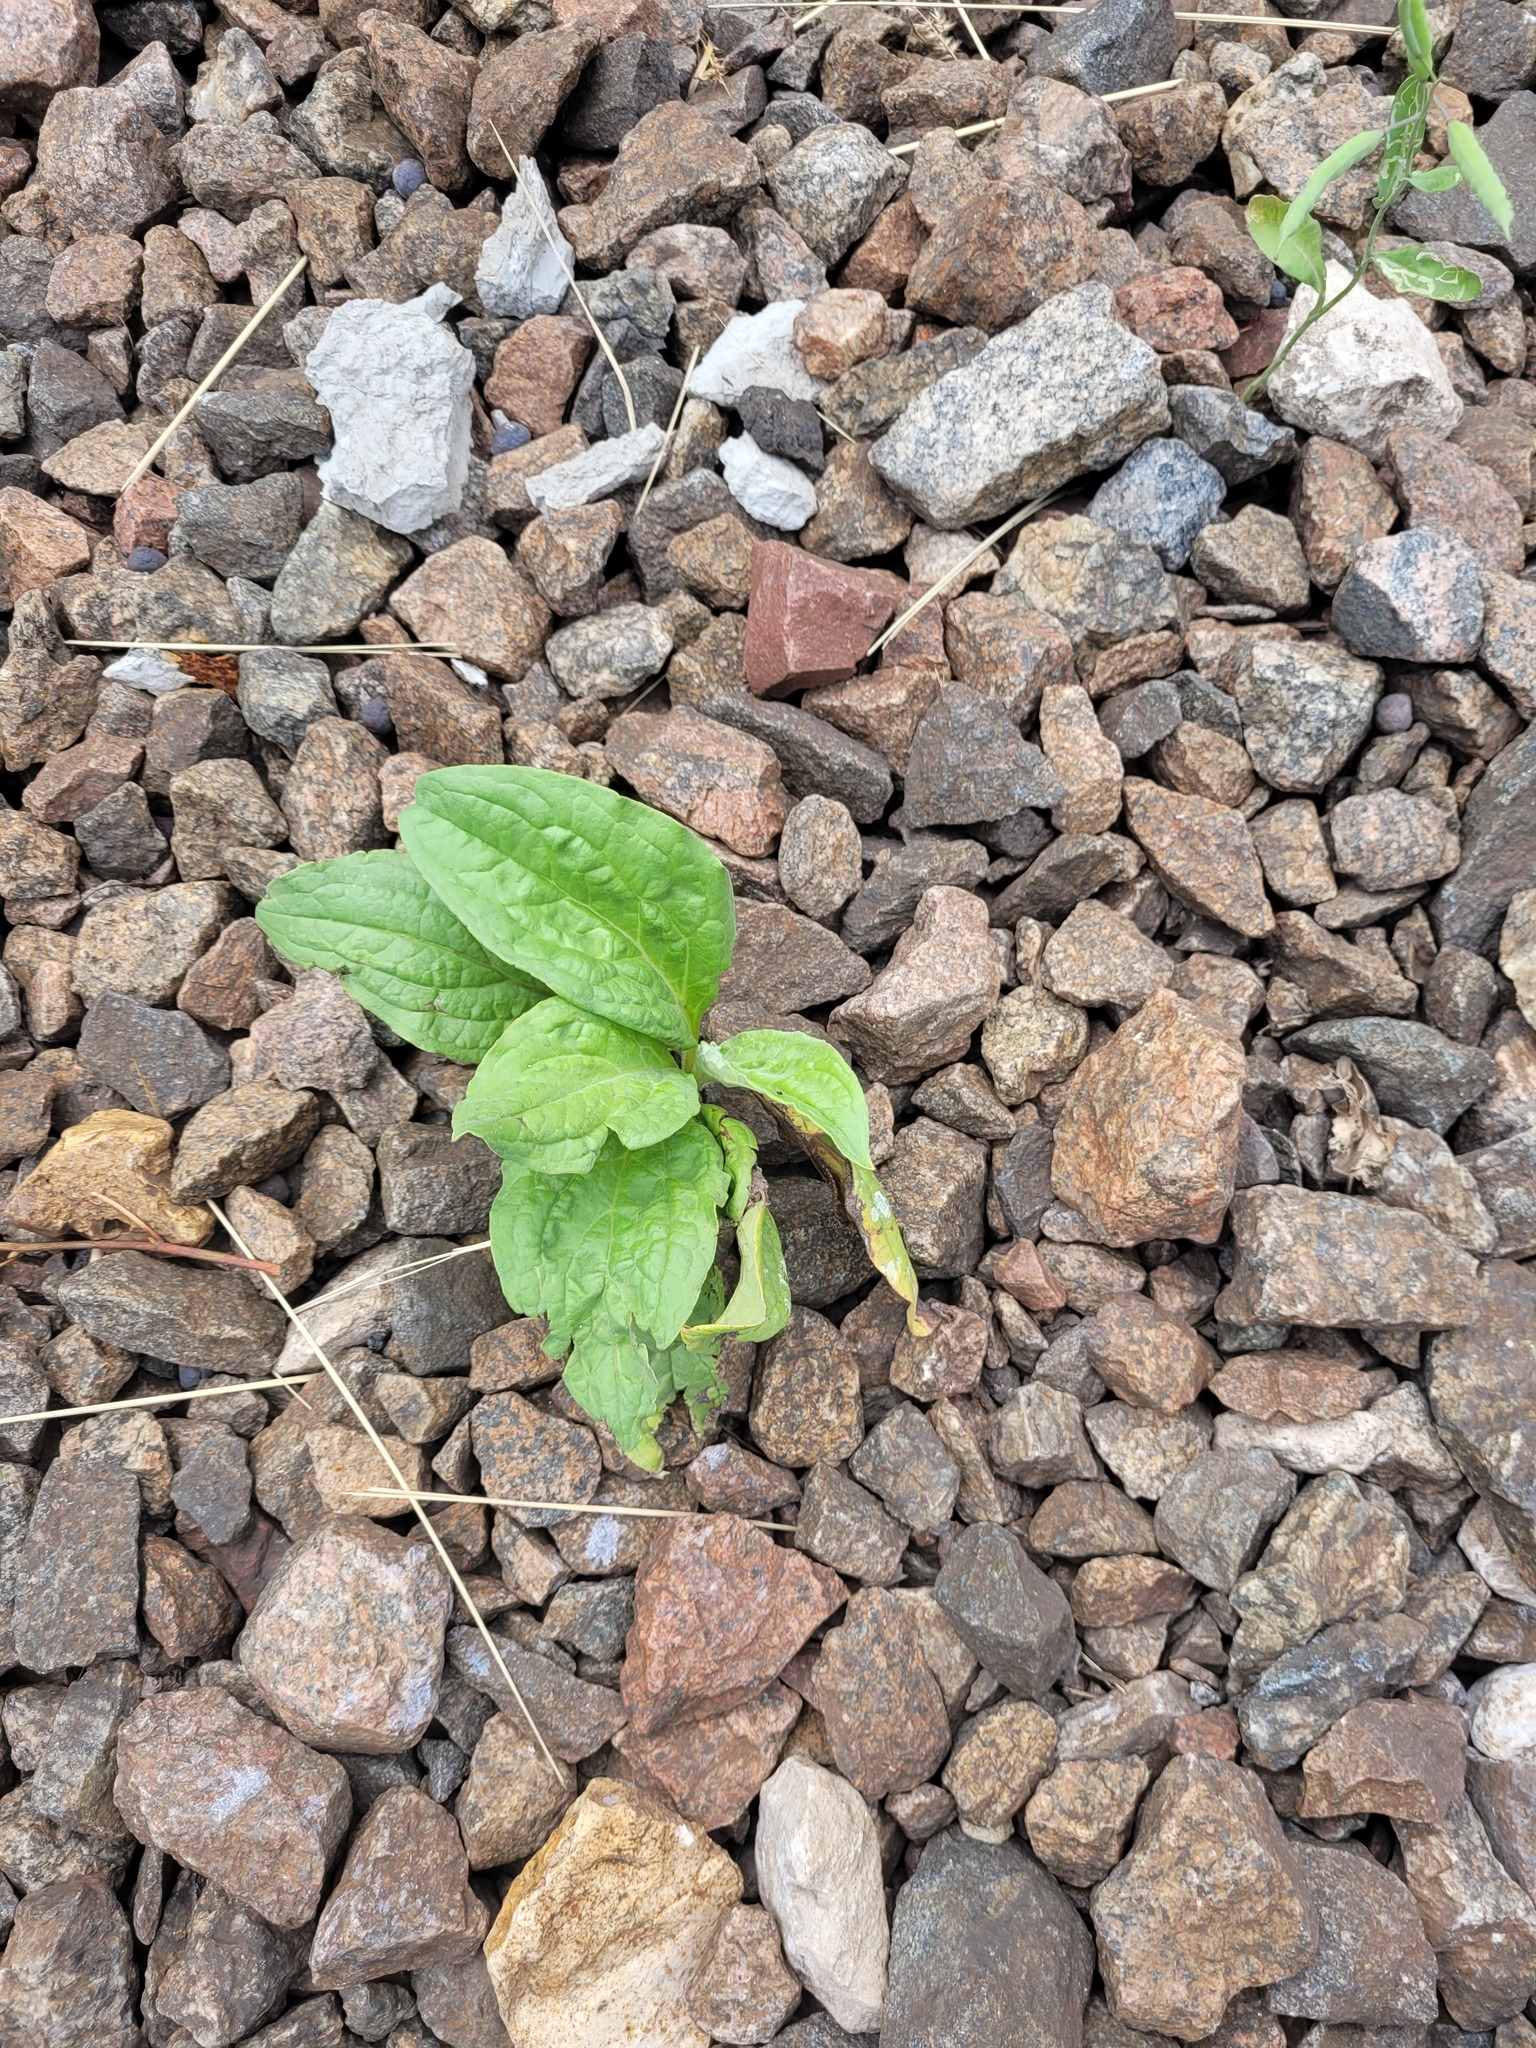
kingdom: Plantae
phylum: Tracheophyta
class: Magnoliopsida
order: Boraginales
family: Boraginaceae
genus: Cynoglossum
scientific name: Cynoglossum officinale
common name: Hound's-tongue
